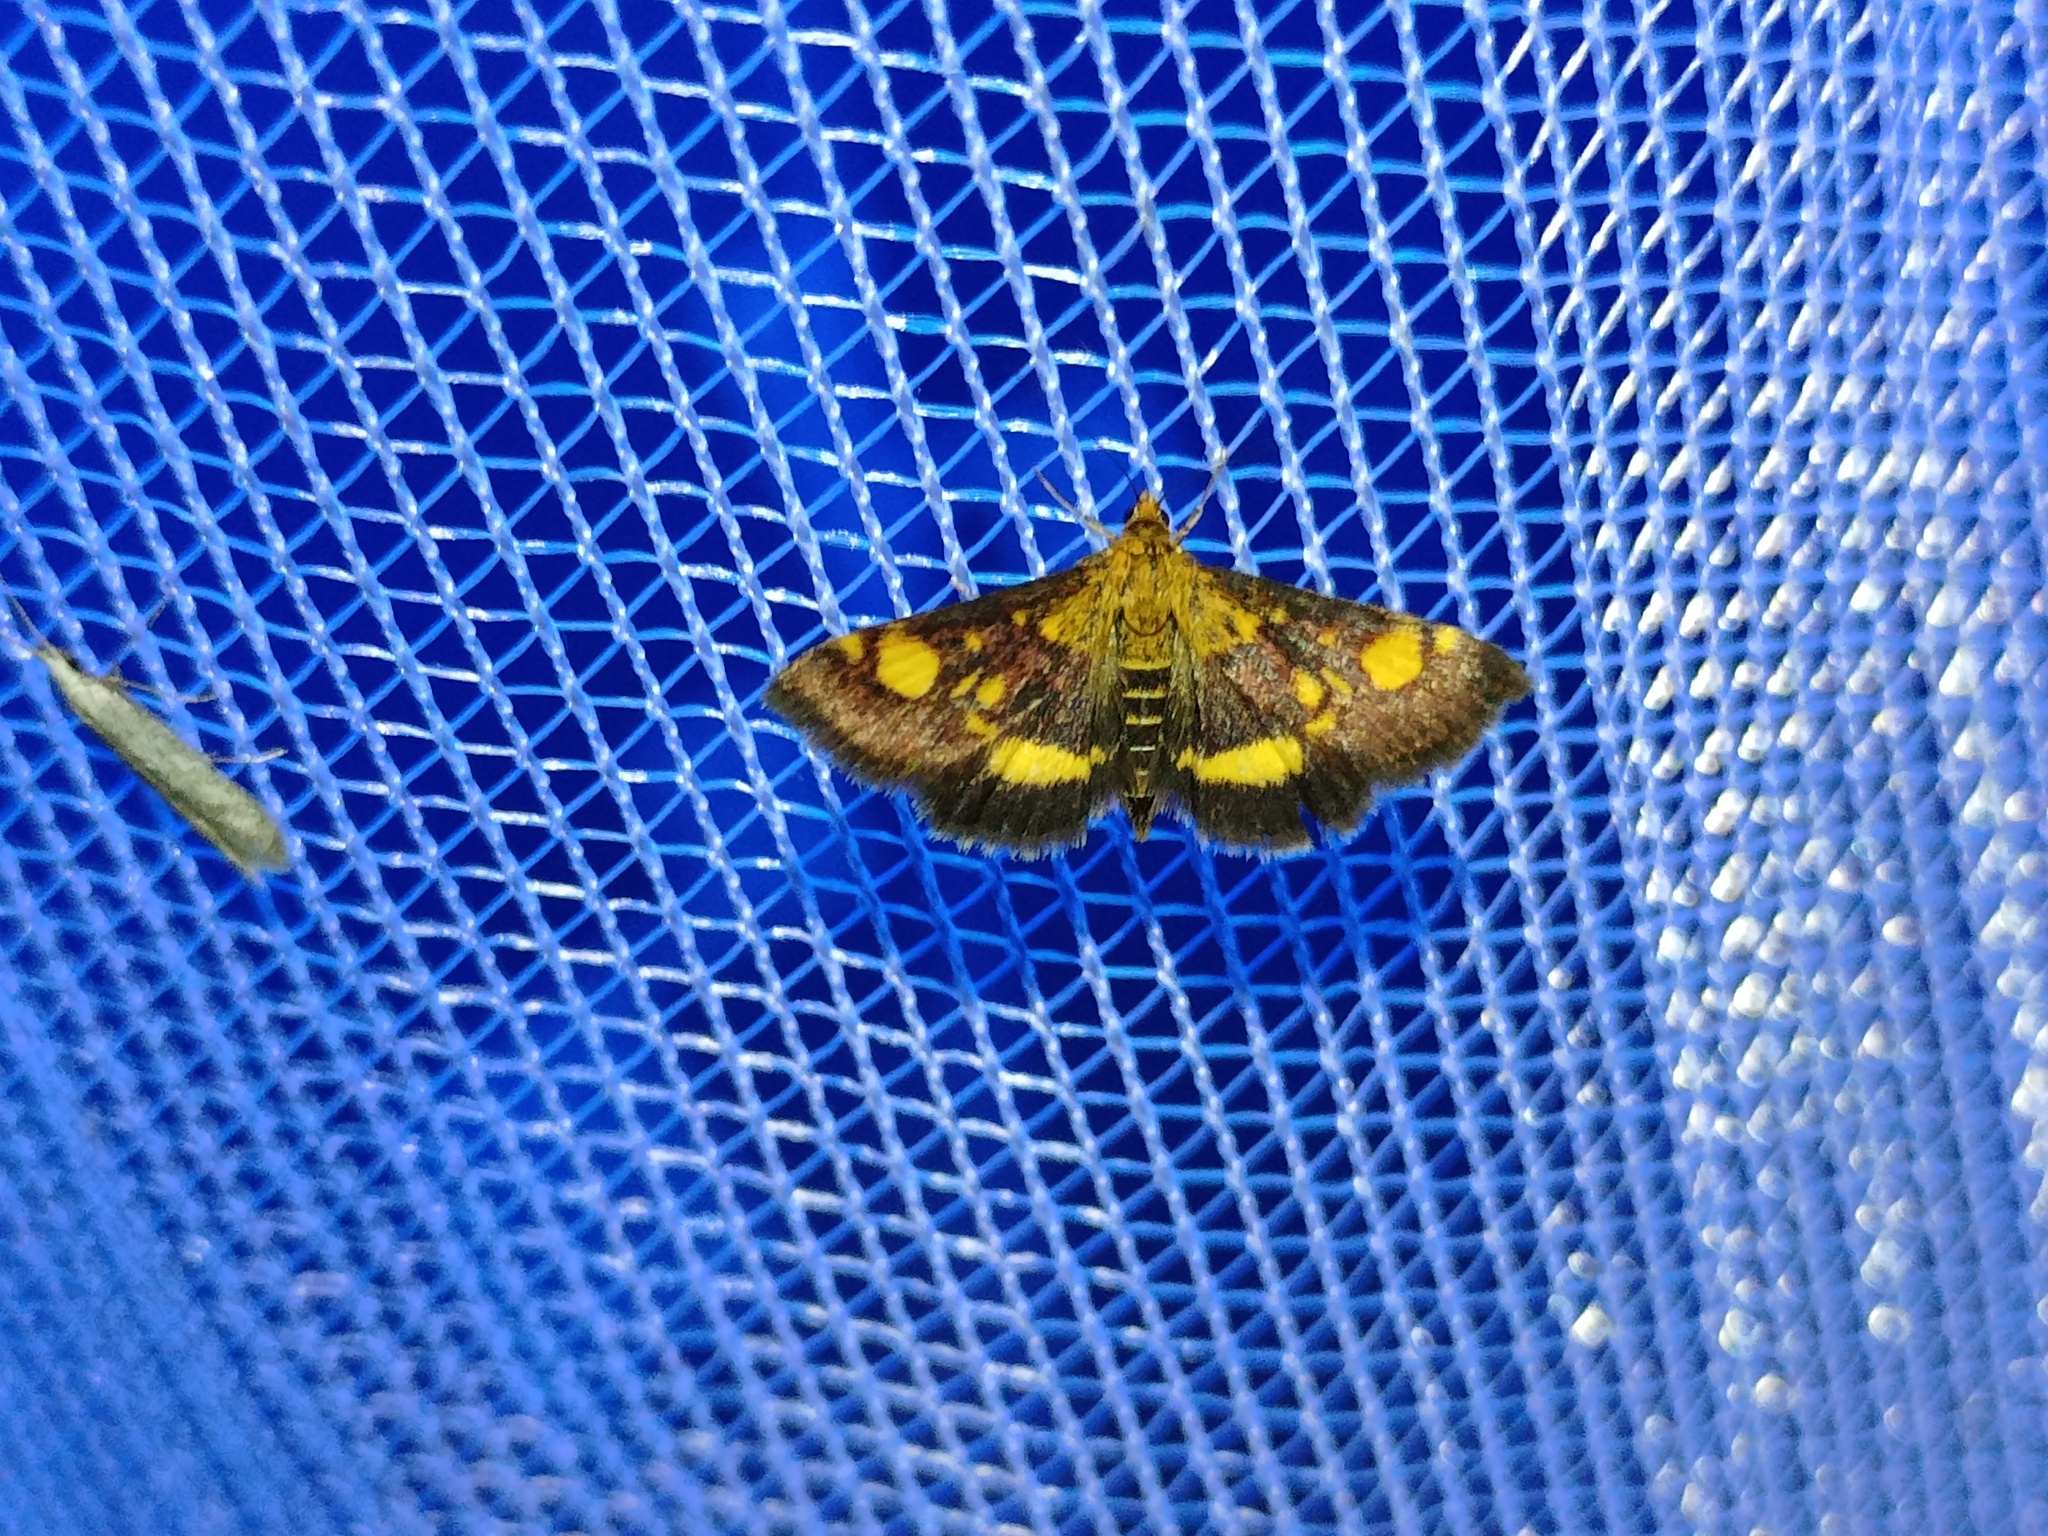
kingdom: Animalia
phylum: Arthropoda
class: Insecta
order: Lepidoptera
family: Crambidae
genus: Pyrausta
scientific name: Pyrausta aurata
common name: Small purple & gold
